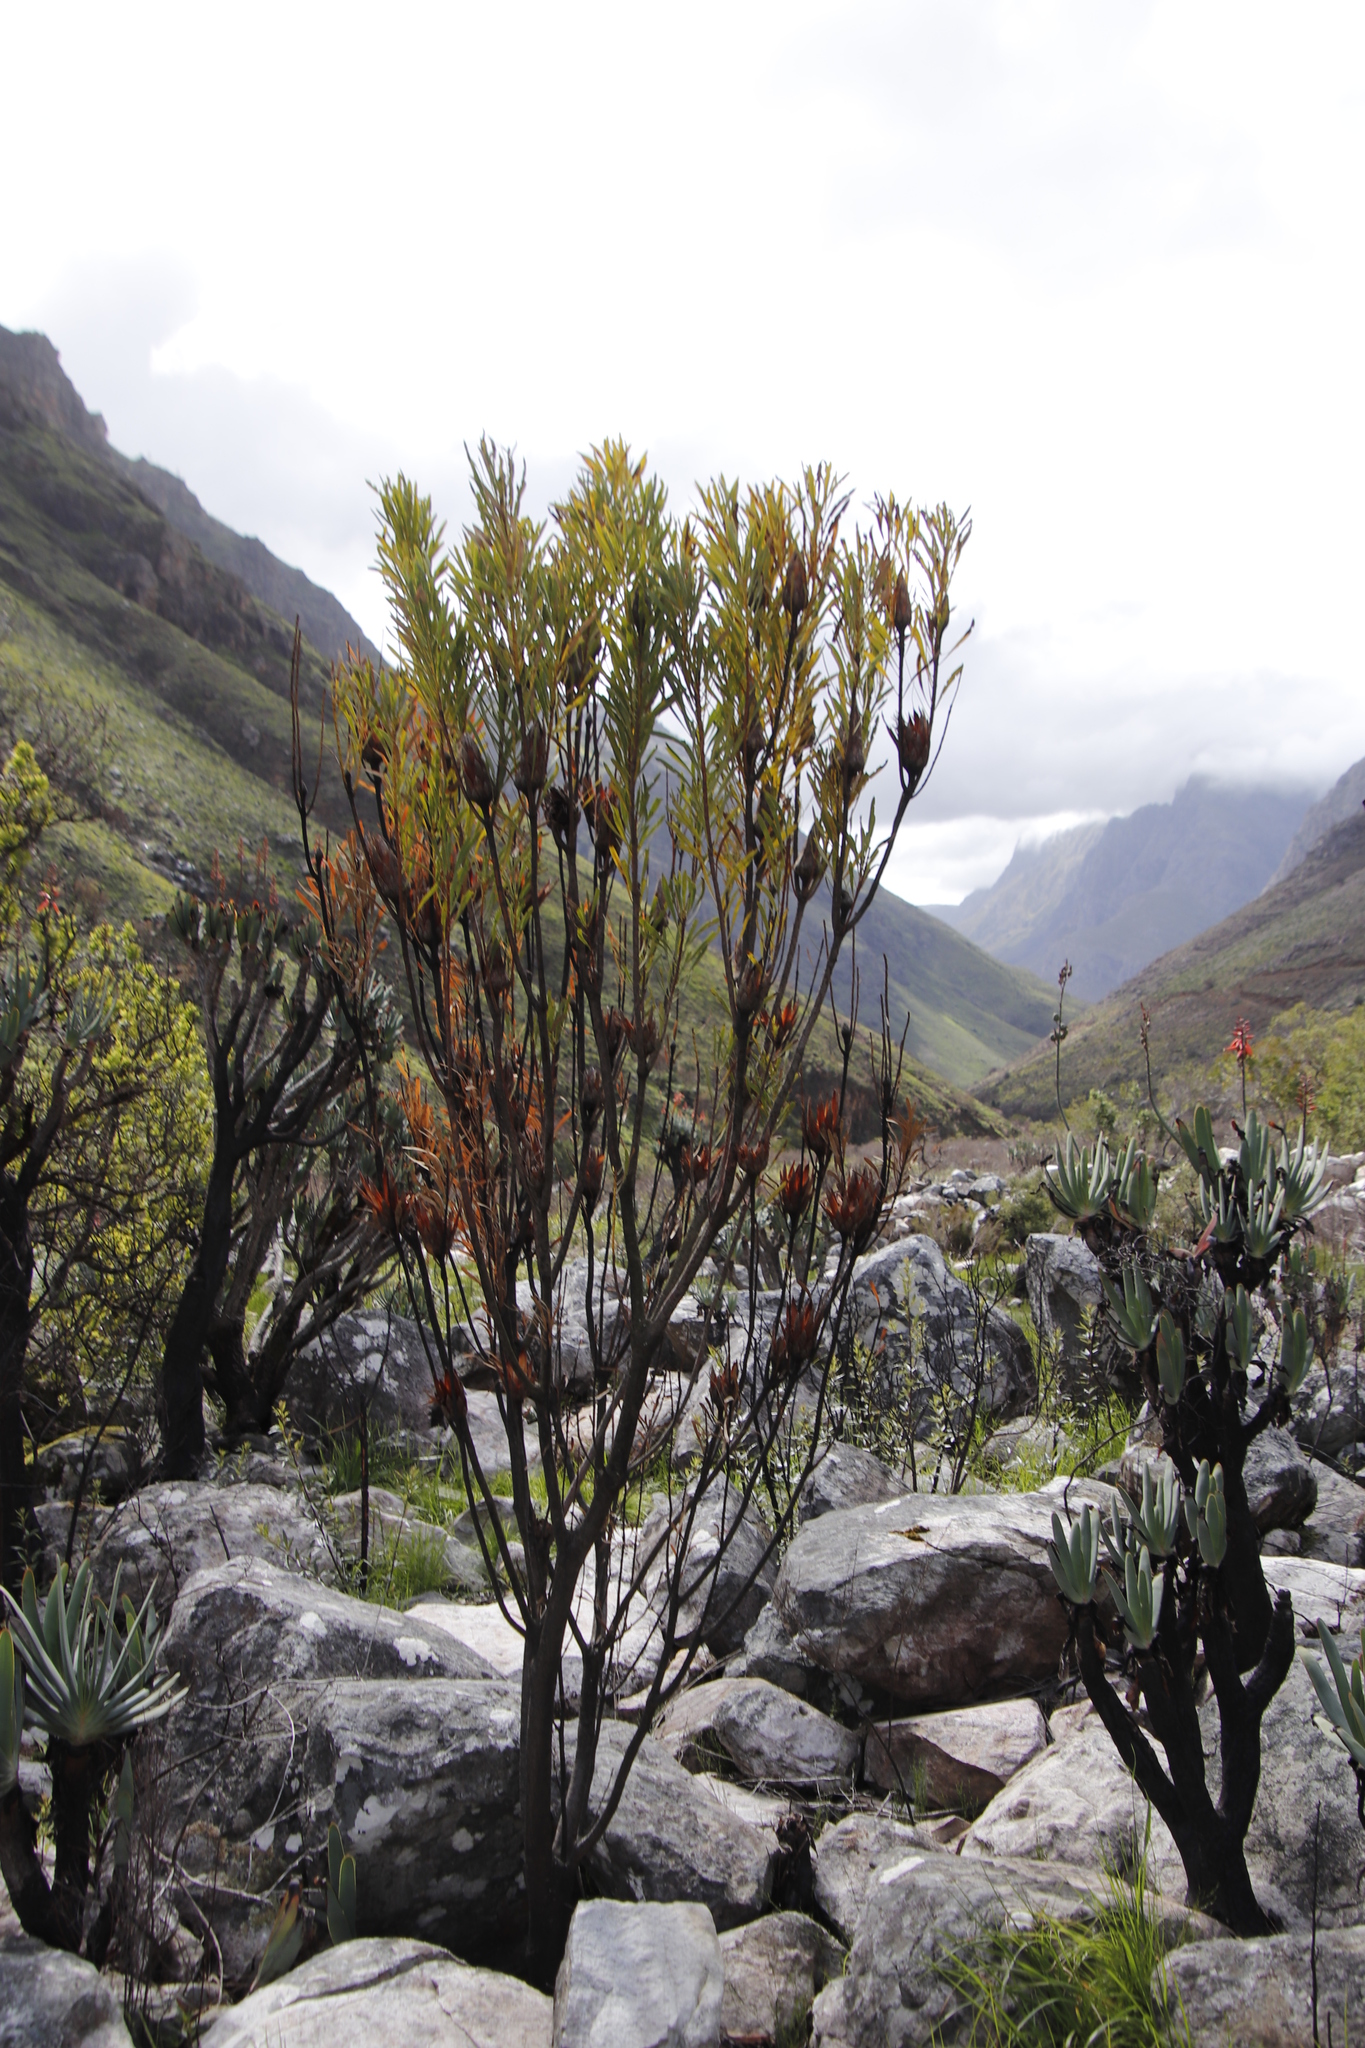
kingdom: Plantae
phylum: Tracheophyta
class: Magnoliopsida
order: Proteales
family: Proteaceae
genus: Protea
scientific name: Protea repens
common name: Sugarbush
